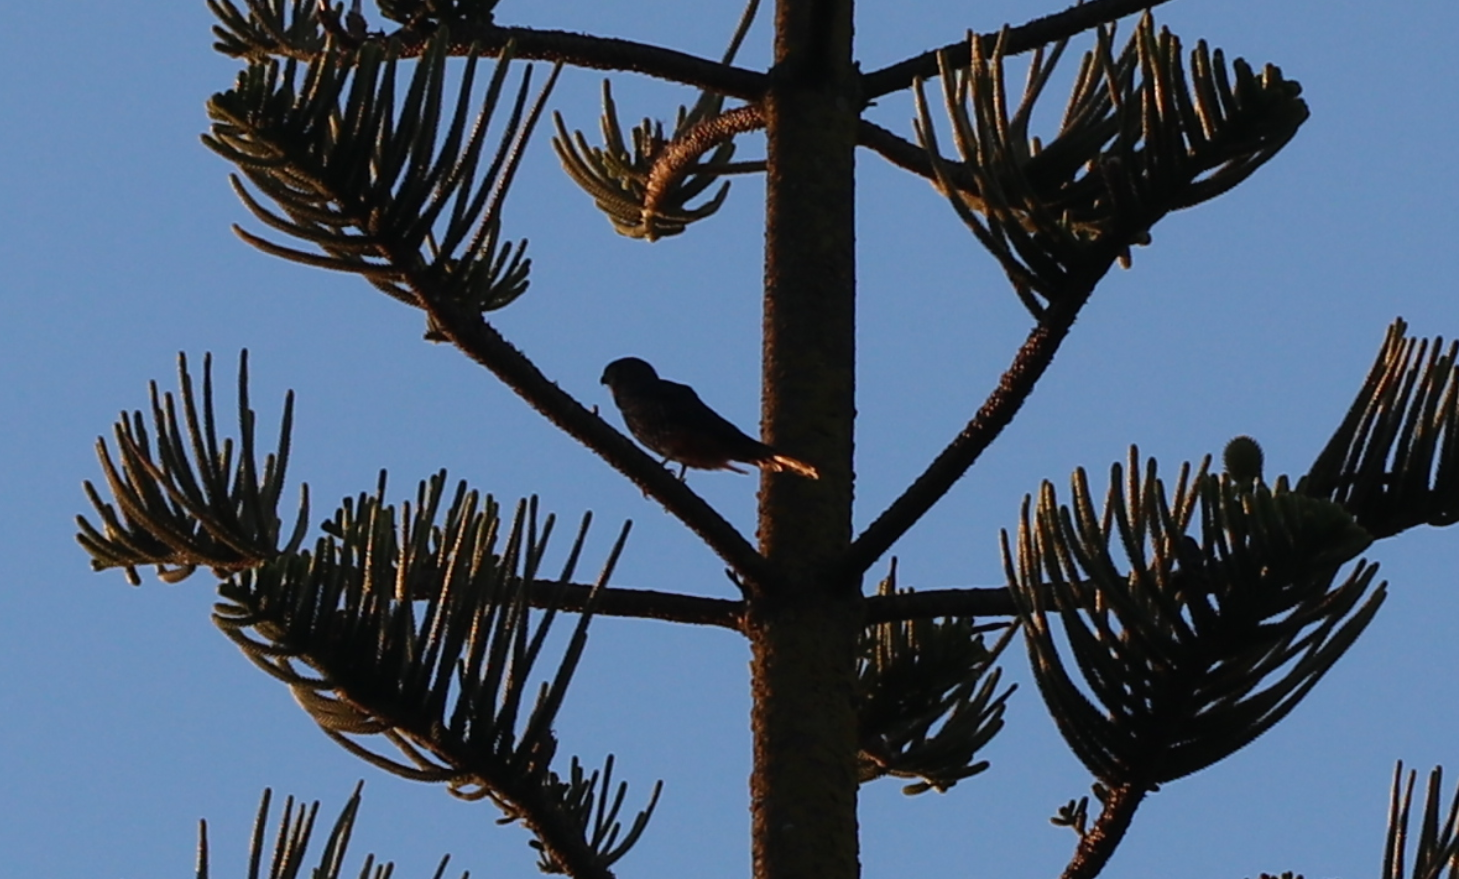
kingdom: Animalia
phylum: Chordata
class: Aves
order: Falconiformes
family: Falconidae
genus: Falco
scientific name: Falco novaeseelandiae
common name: New zealand falcon
